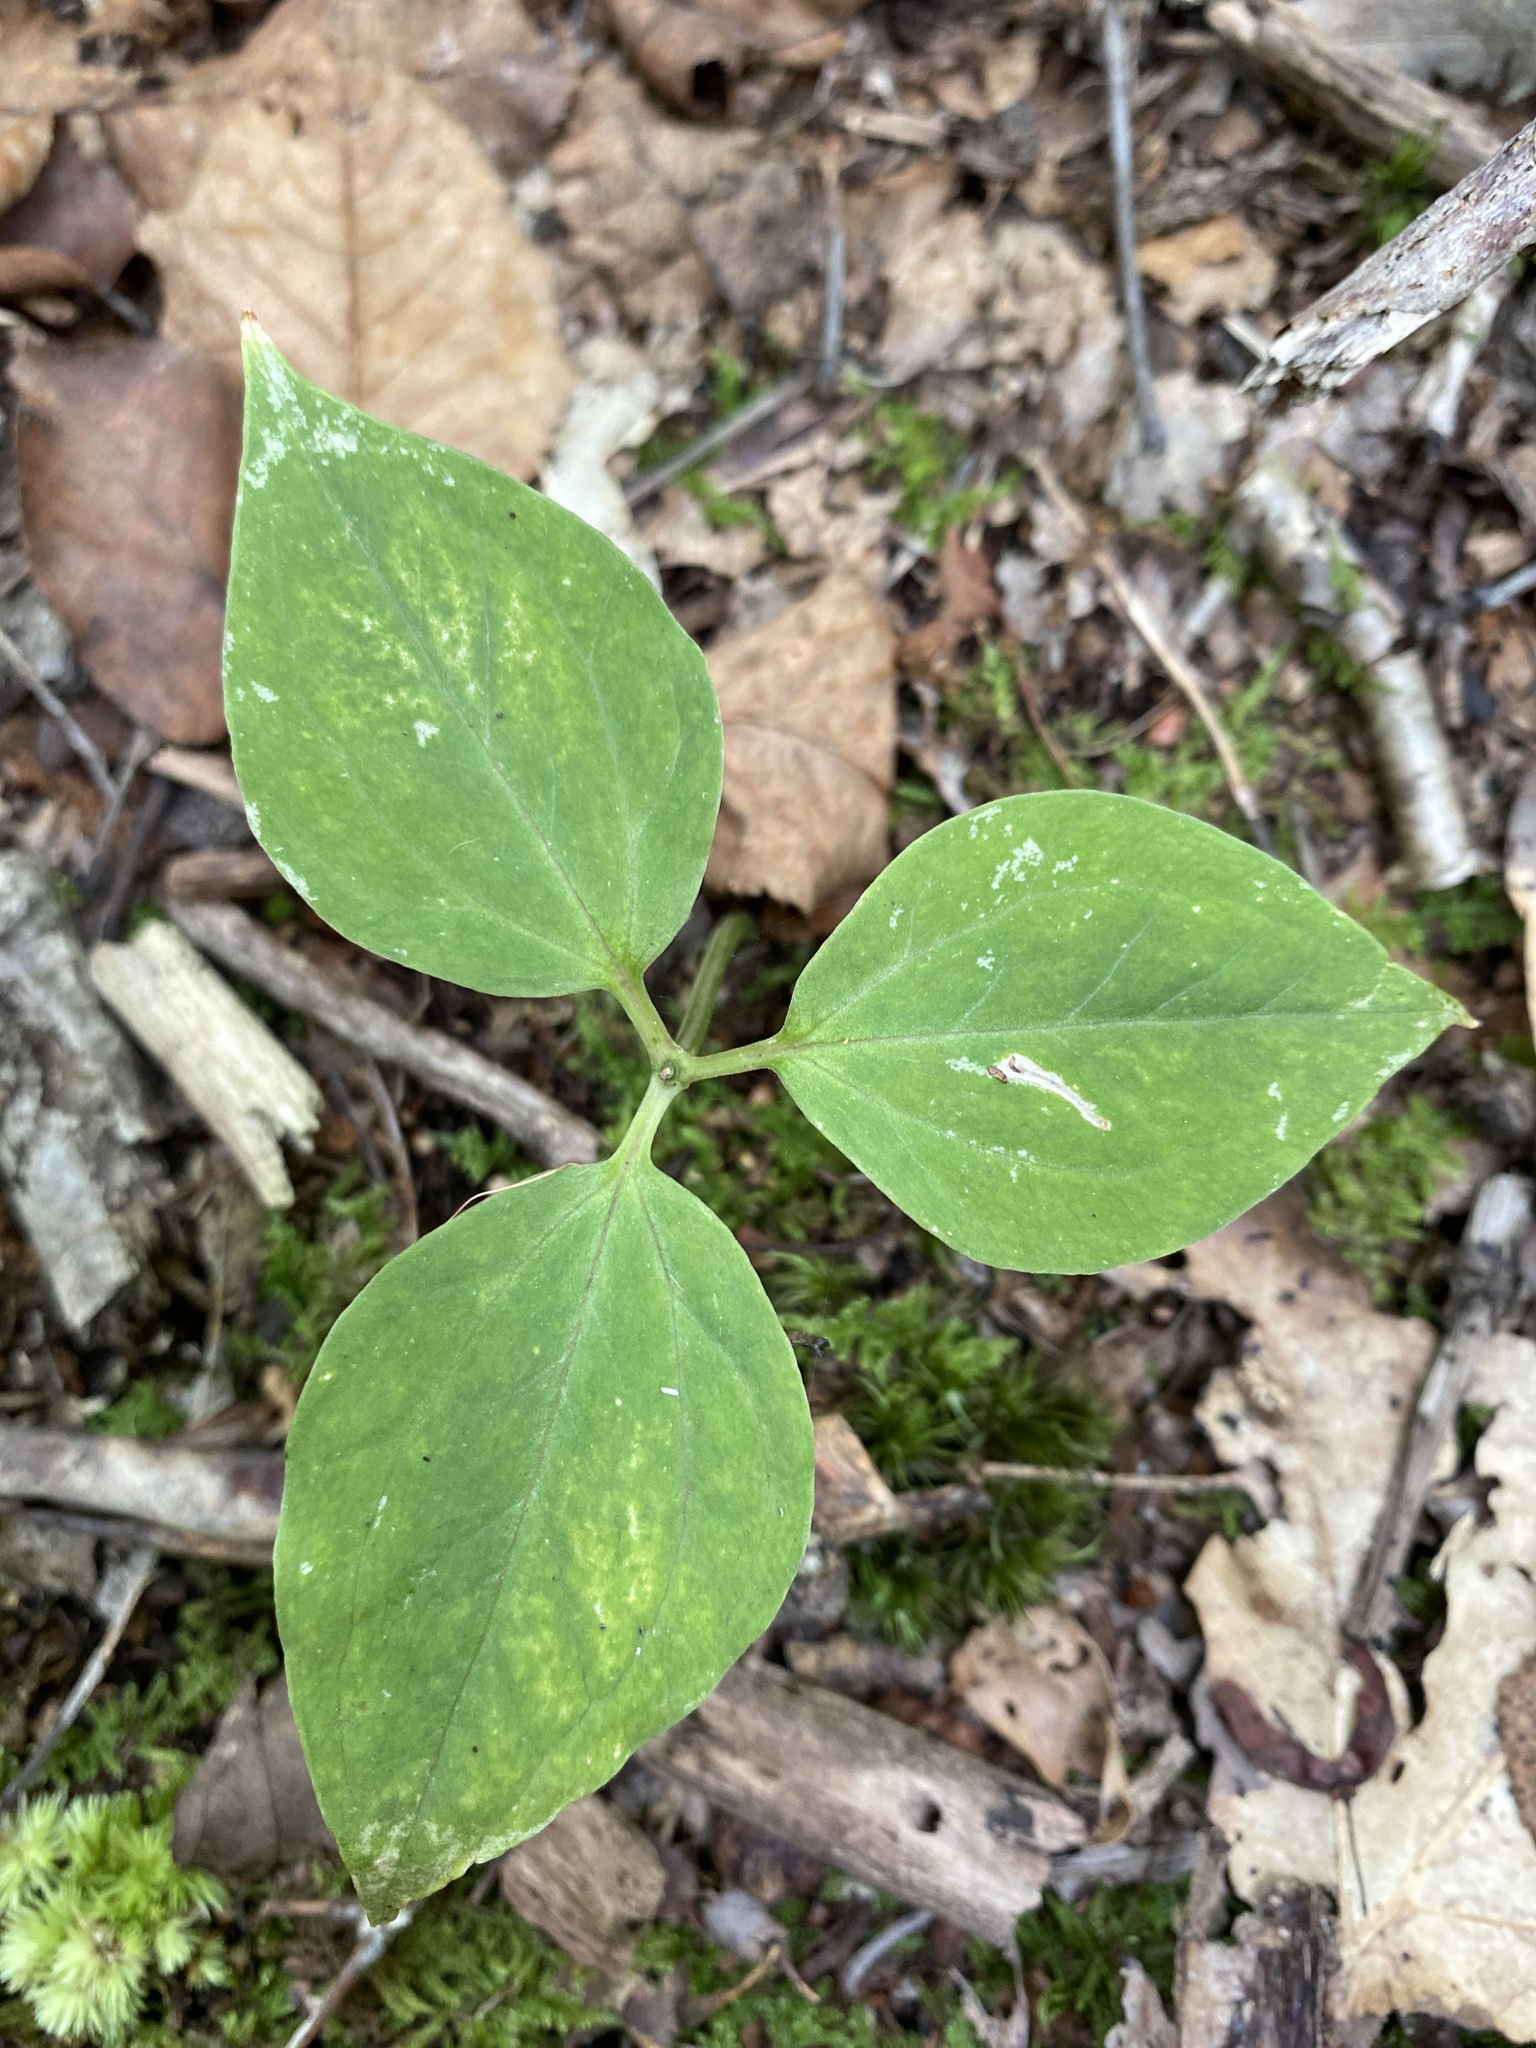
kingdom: Plantae
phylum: Tracheophyta
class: Liliopsida
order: Liliales
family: Melanthiaceae
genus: Trillium
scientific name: Trillium undulatum
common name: Paint trillium
